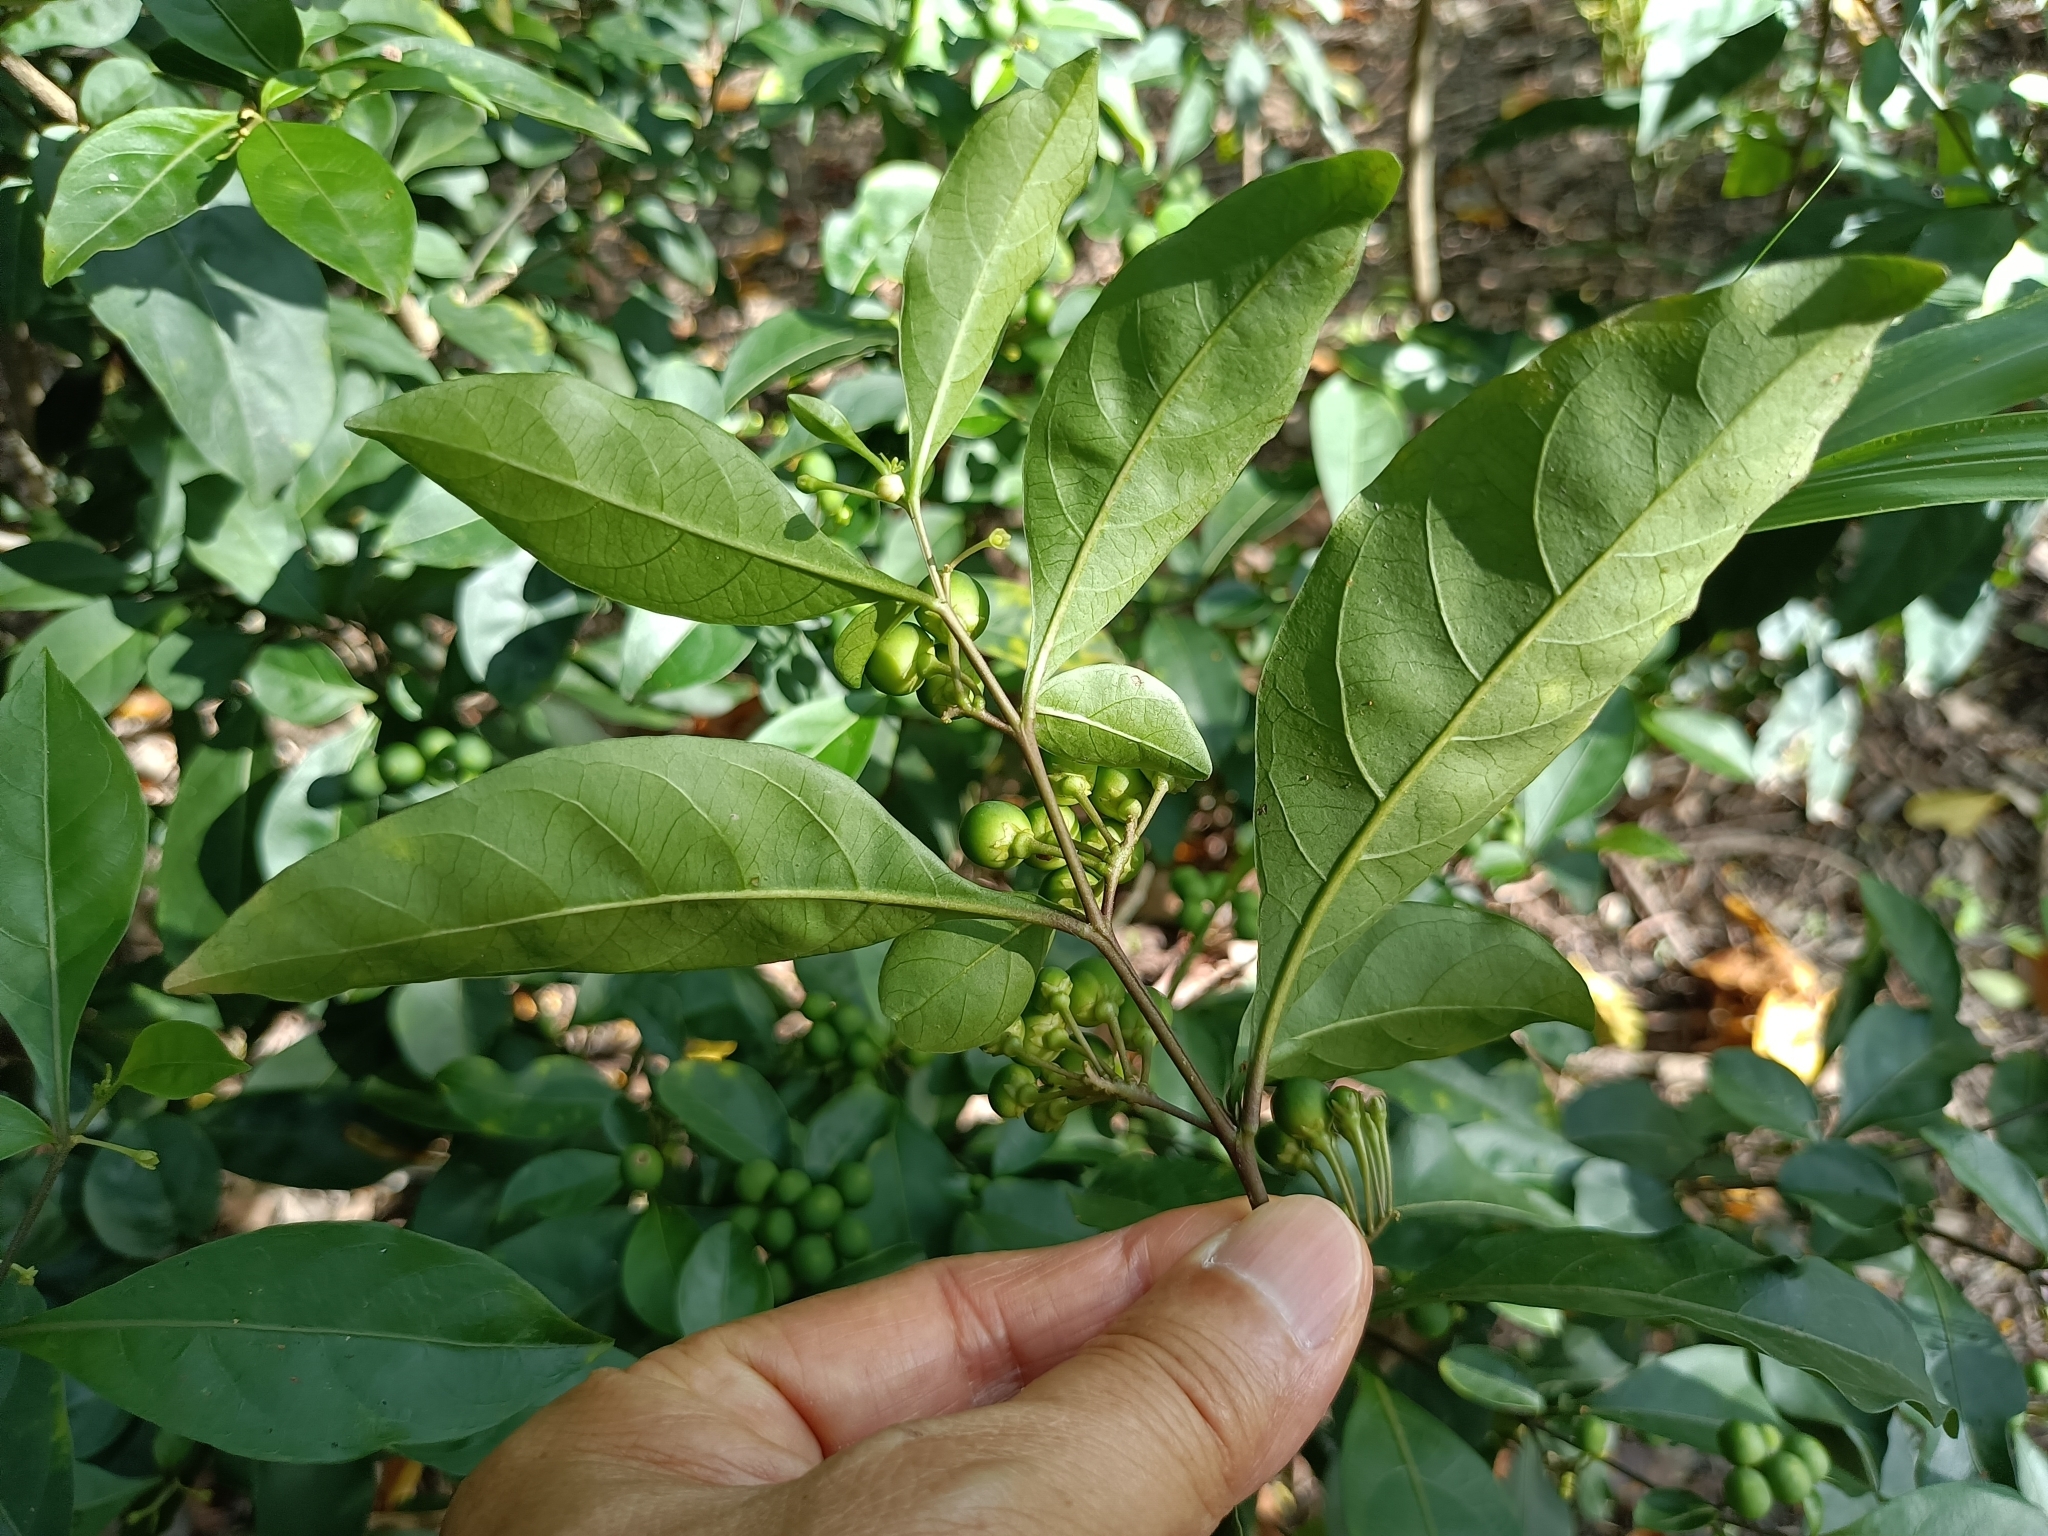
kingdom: Plantae
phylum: Tracheophyta
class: Magnoliopsida
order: Solanales
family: Solanaceae
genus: Solanum
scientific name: Solanum diphyllum
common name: Twoleaf nightshade
